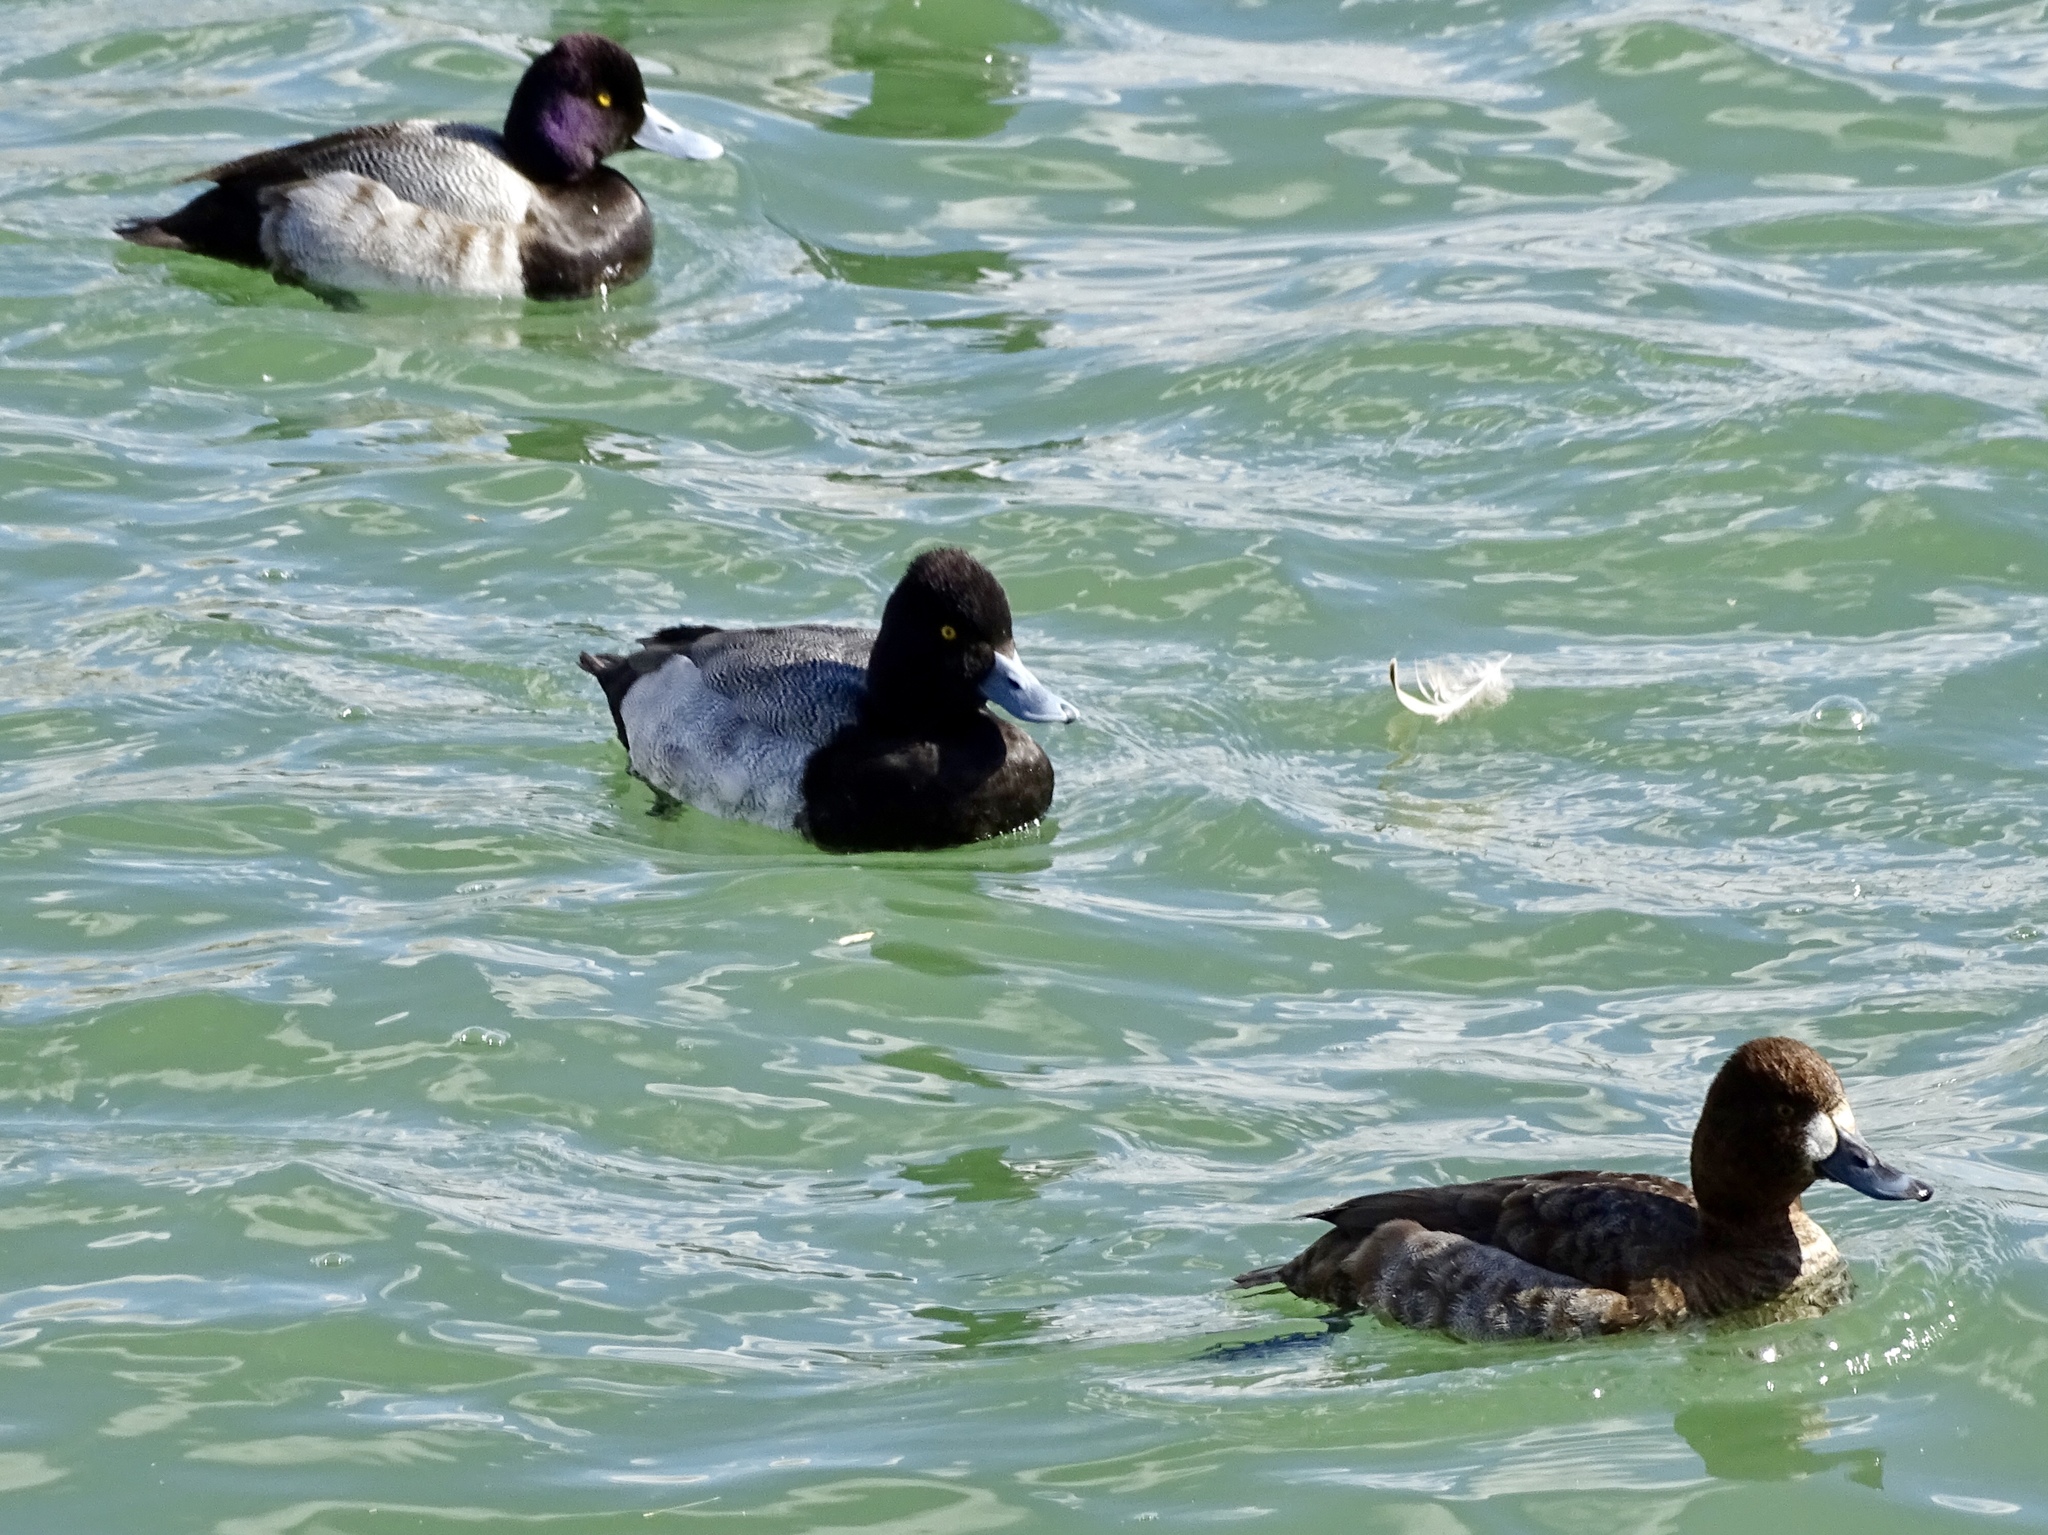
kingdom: Animalia
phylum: Chordata
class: Aves
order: Anseriformes
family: Anatidae
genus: Aythya
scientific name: Aythya affinis
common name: Lesser scaup
